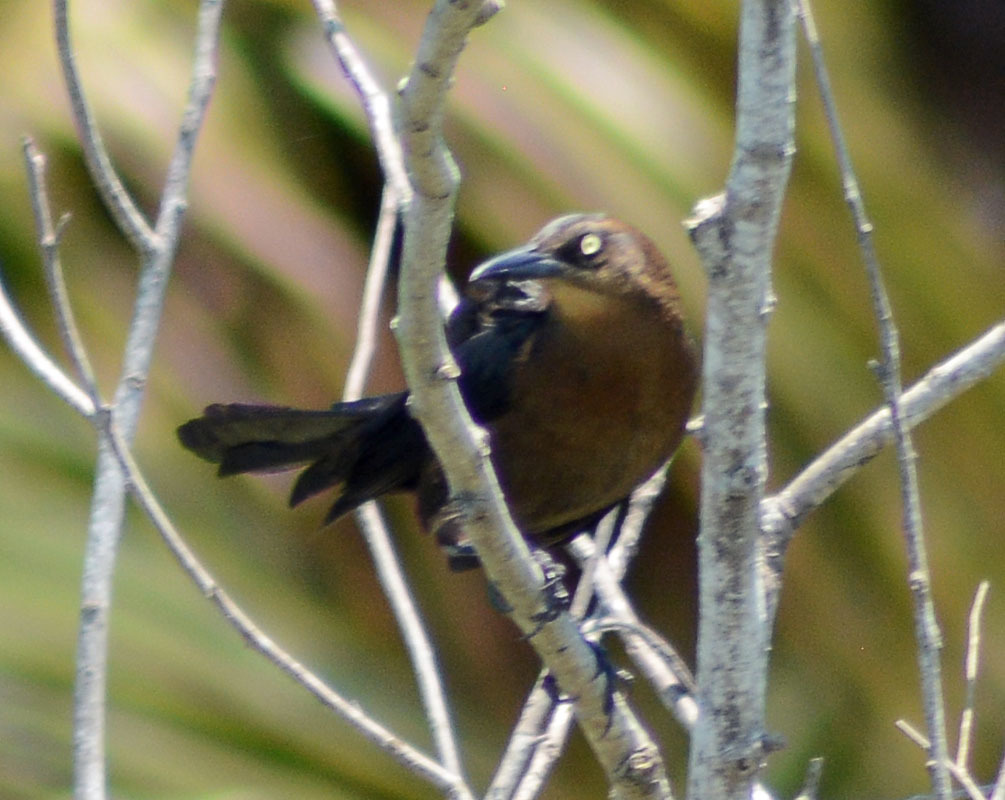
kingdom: Animalia
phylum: Chordata
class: Aves
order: Passeriformes
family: Icteridae
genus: Quiscalus
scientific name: Quiscalus mexicanus
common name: Great-tailed grackle
